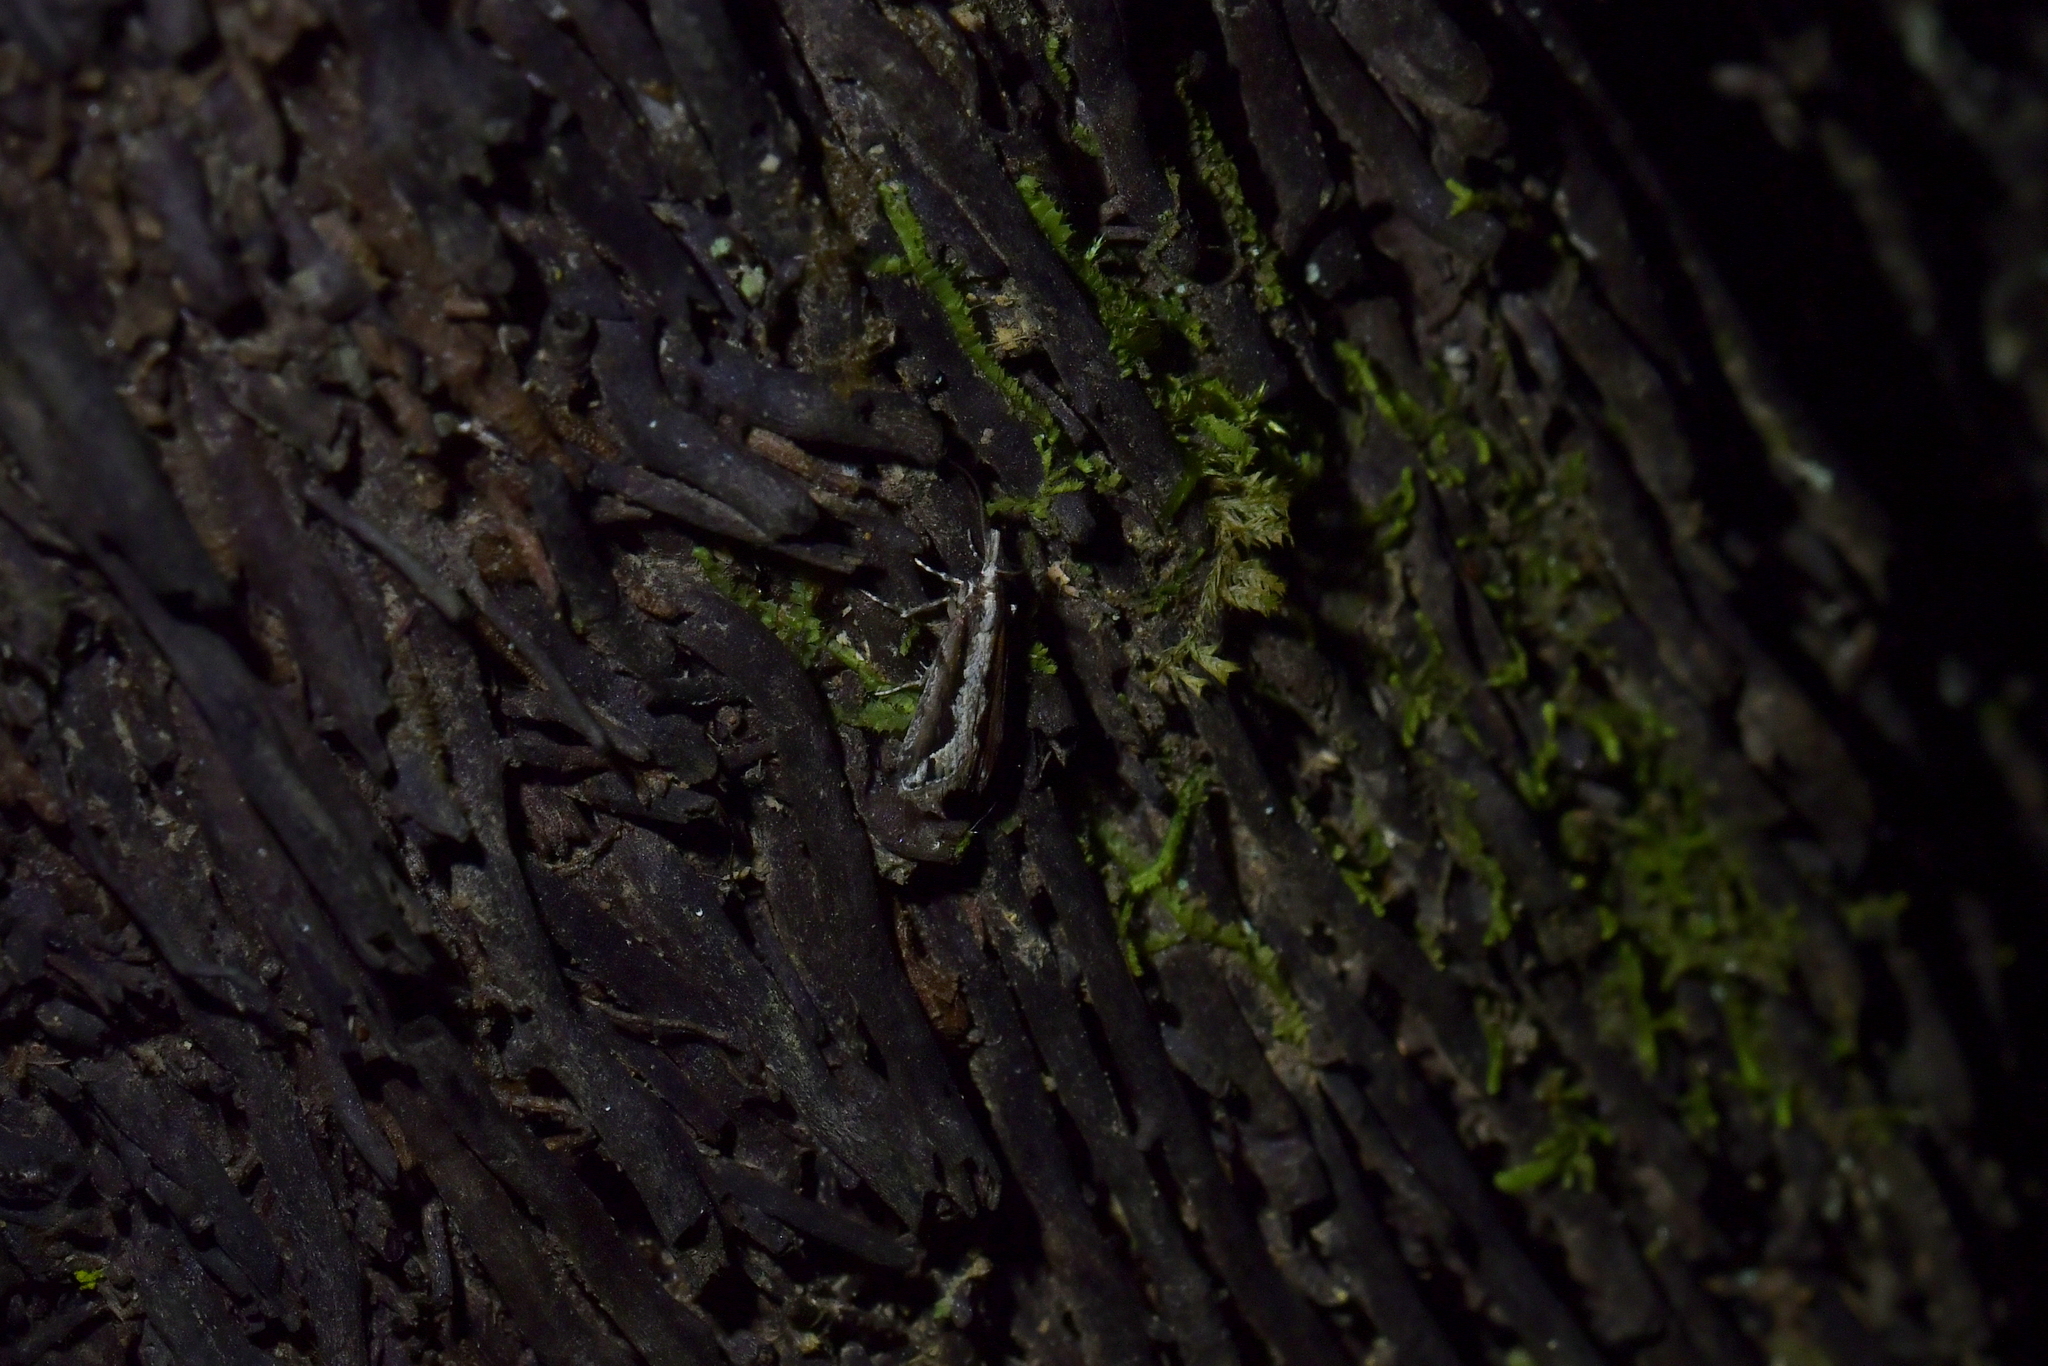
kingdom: Animalia
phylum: Arthropoda
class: Insecta
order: Lepidoptera
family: Crambidae
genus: Eudonia
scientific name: Eudonia steropaea
